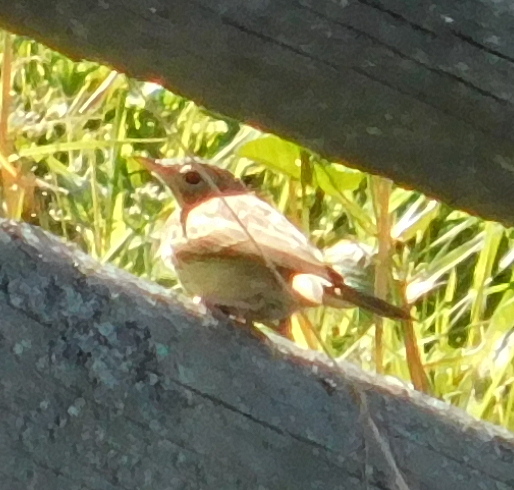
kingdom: Animalia
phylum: Chordata
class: Aves
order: Passeriformes
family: Motacillidae
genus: Anthus
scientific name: Anthus trivialis
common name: Tree pipit
